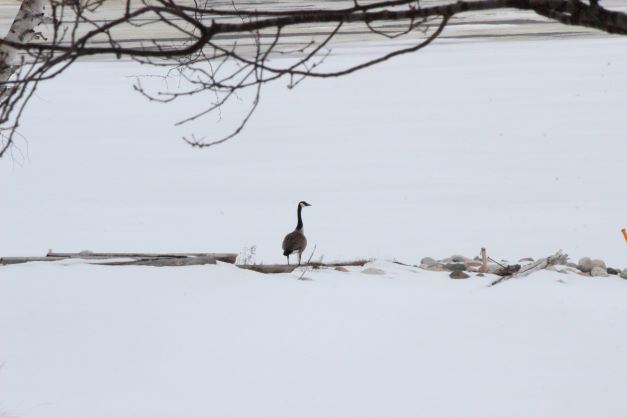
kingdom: Animalia
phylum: Chordata
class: Aves
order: Anseriformes
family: Anatidae
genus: Branta
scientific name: Branta canadensis
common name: Canada goose
